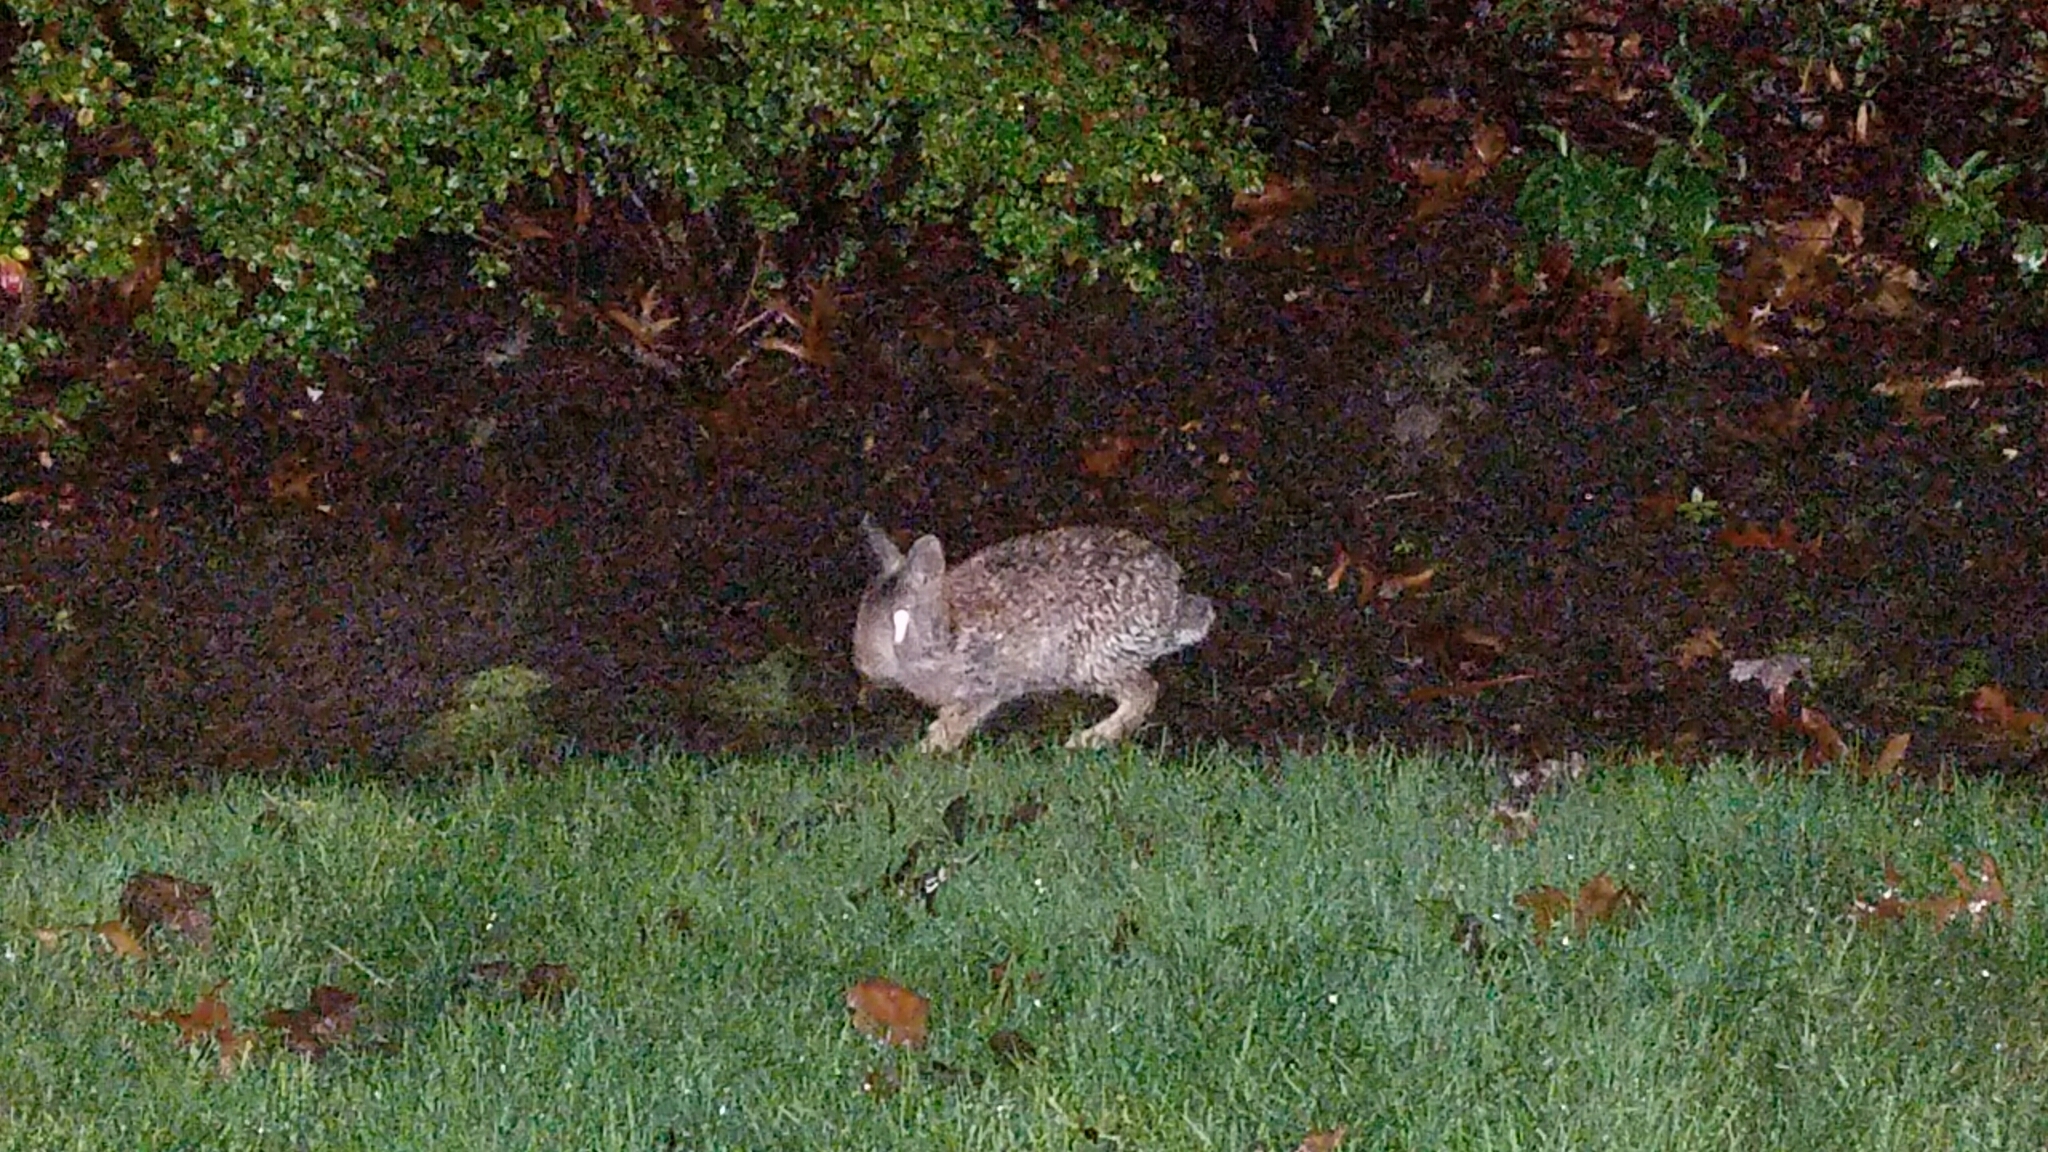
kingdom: Animalia
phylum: Chordata
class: Mammalia
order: Lagomorpha
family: Leporidae
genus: Sylvilagus
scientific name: Sylvilagus bachmani
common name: Brush rabbit
